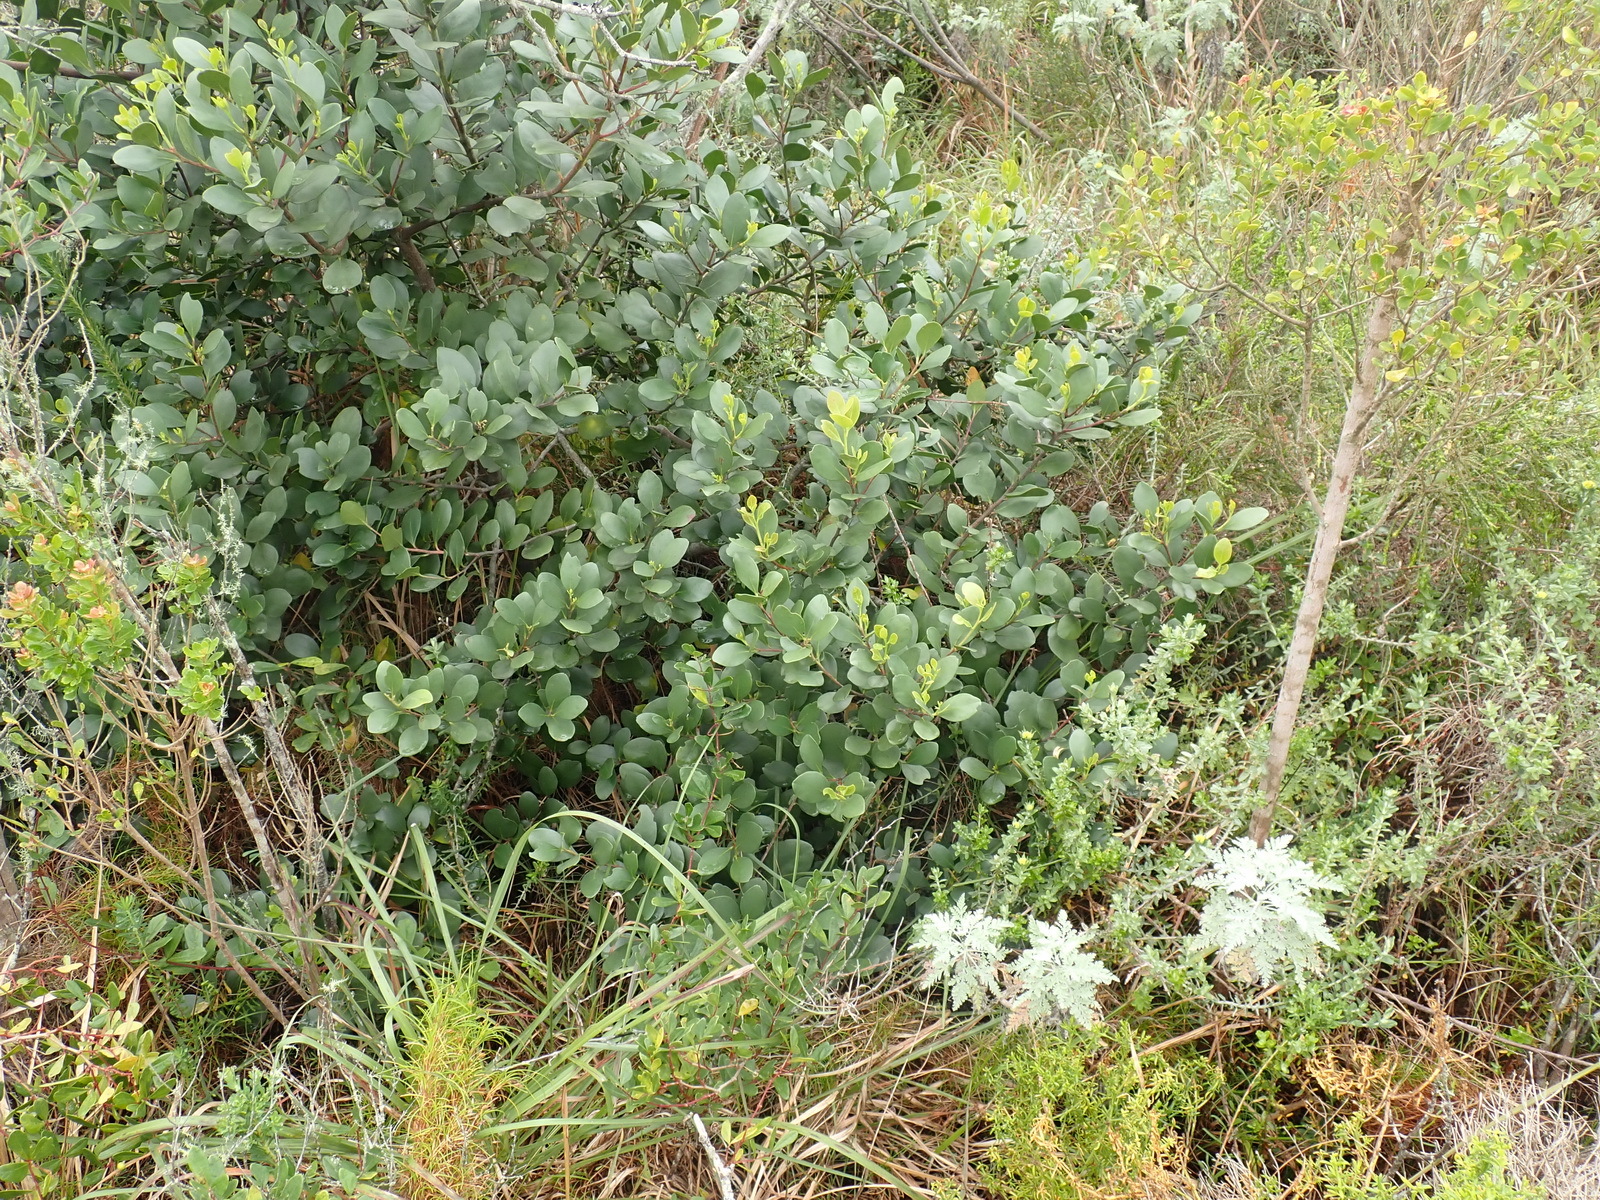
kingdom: Plantae
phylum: Tracheophyta
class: Magnoliopsida
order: Celastrales
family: Celastraceae
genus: Pterocelastrus
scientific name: Pterocelastrus tricuspidatus
